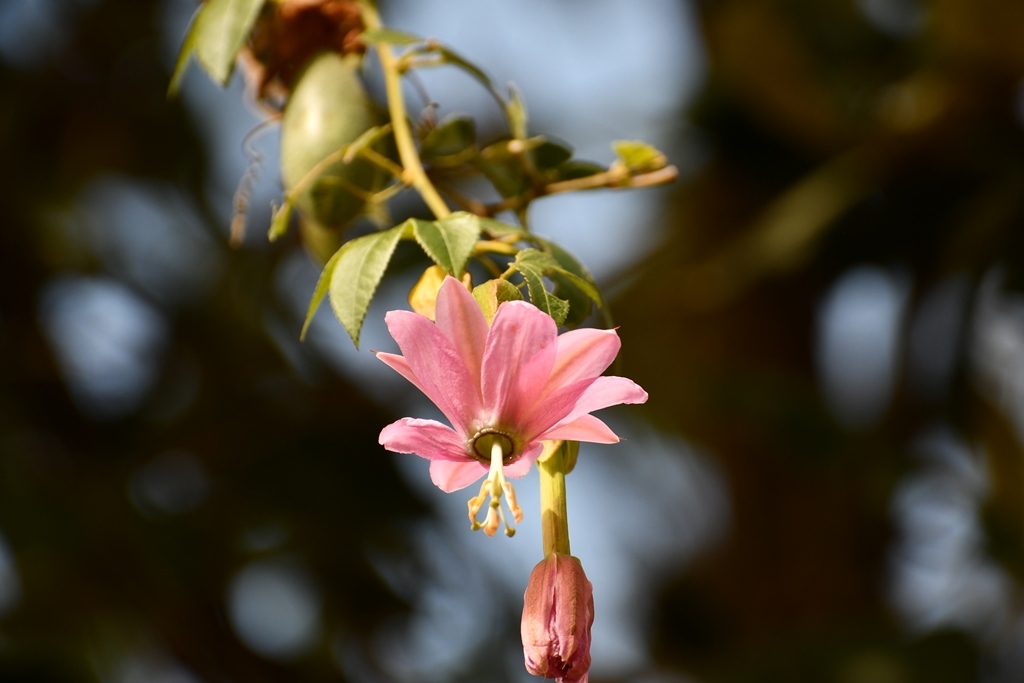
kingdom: Plantae
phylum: Tracheophyta
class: Magnoliopsida
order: Malpighiales
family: Passifloraceae
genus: Passiflora
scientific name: Passiflora tarminiana
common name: Banana poka
